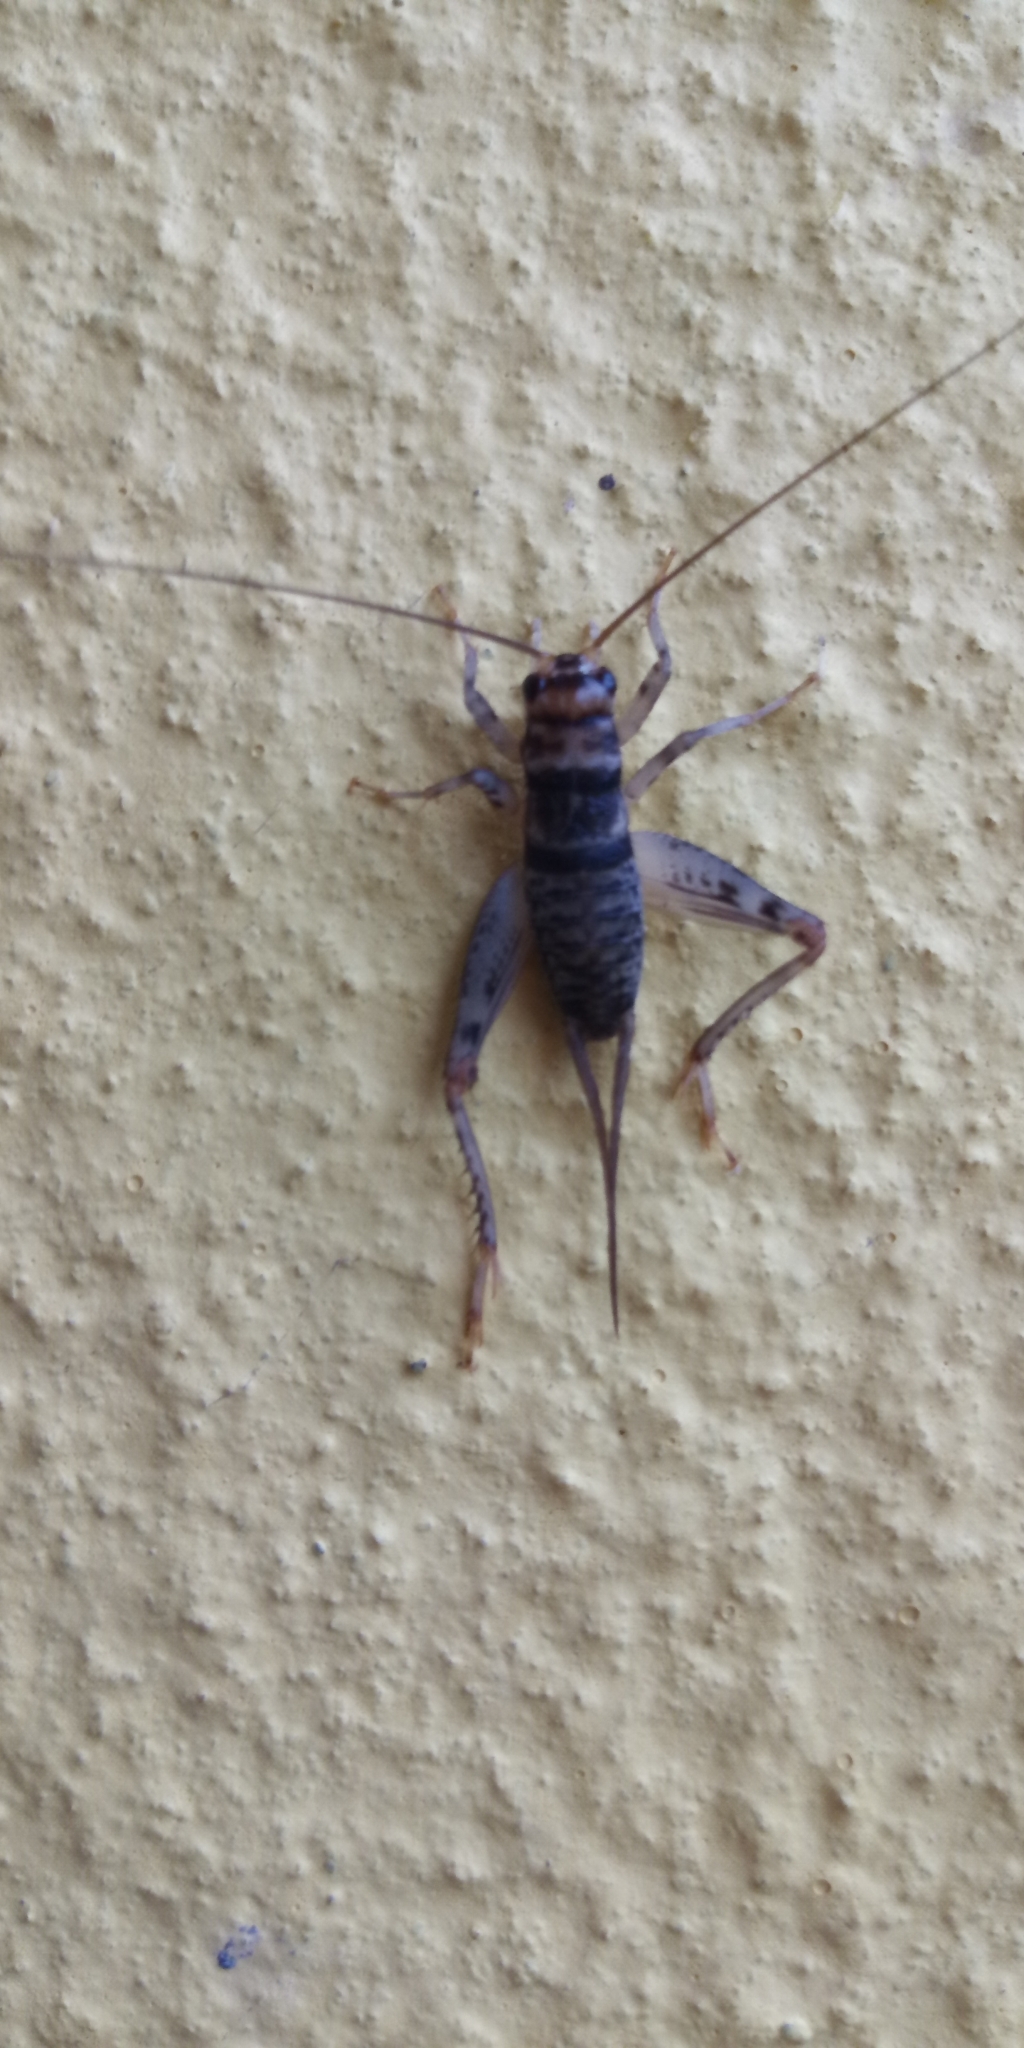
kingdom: Animalia
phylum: Arthropoda
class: Insecta
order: Orthoptera
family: Gryllidae
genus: Gryllodes
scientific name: Gryllodes sigillatus
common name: Tropical house cricket
